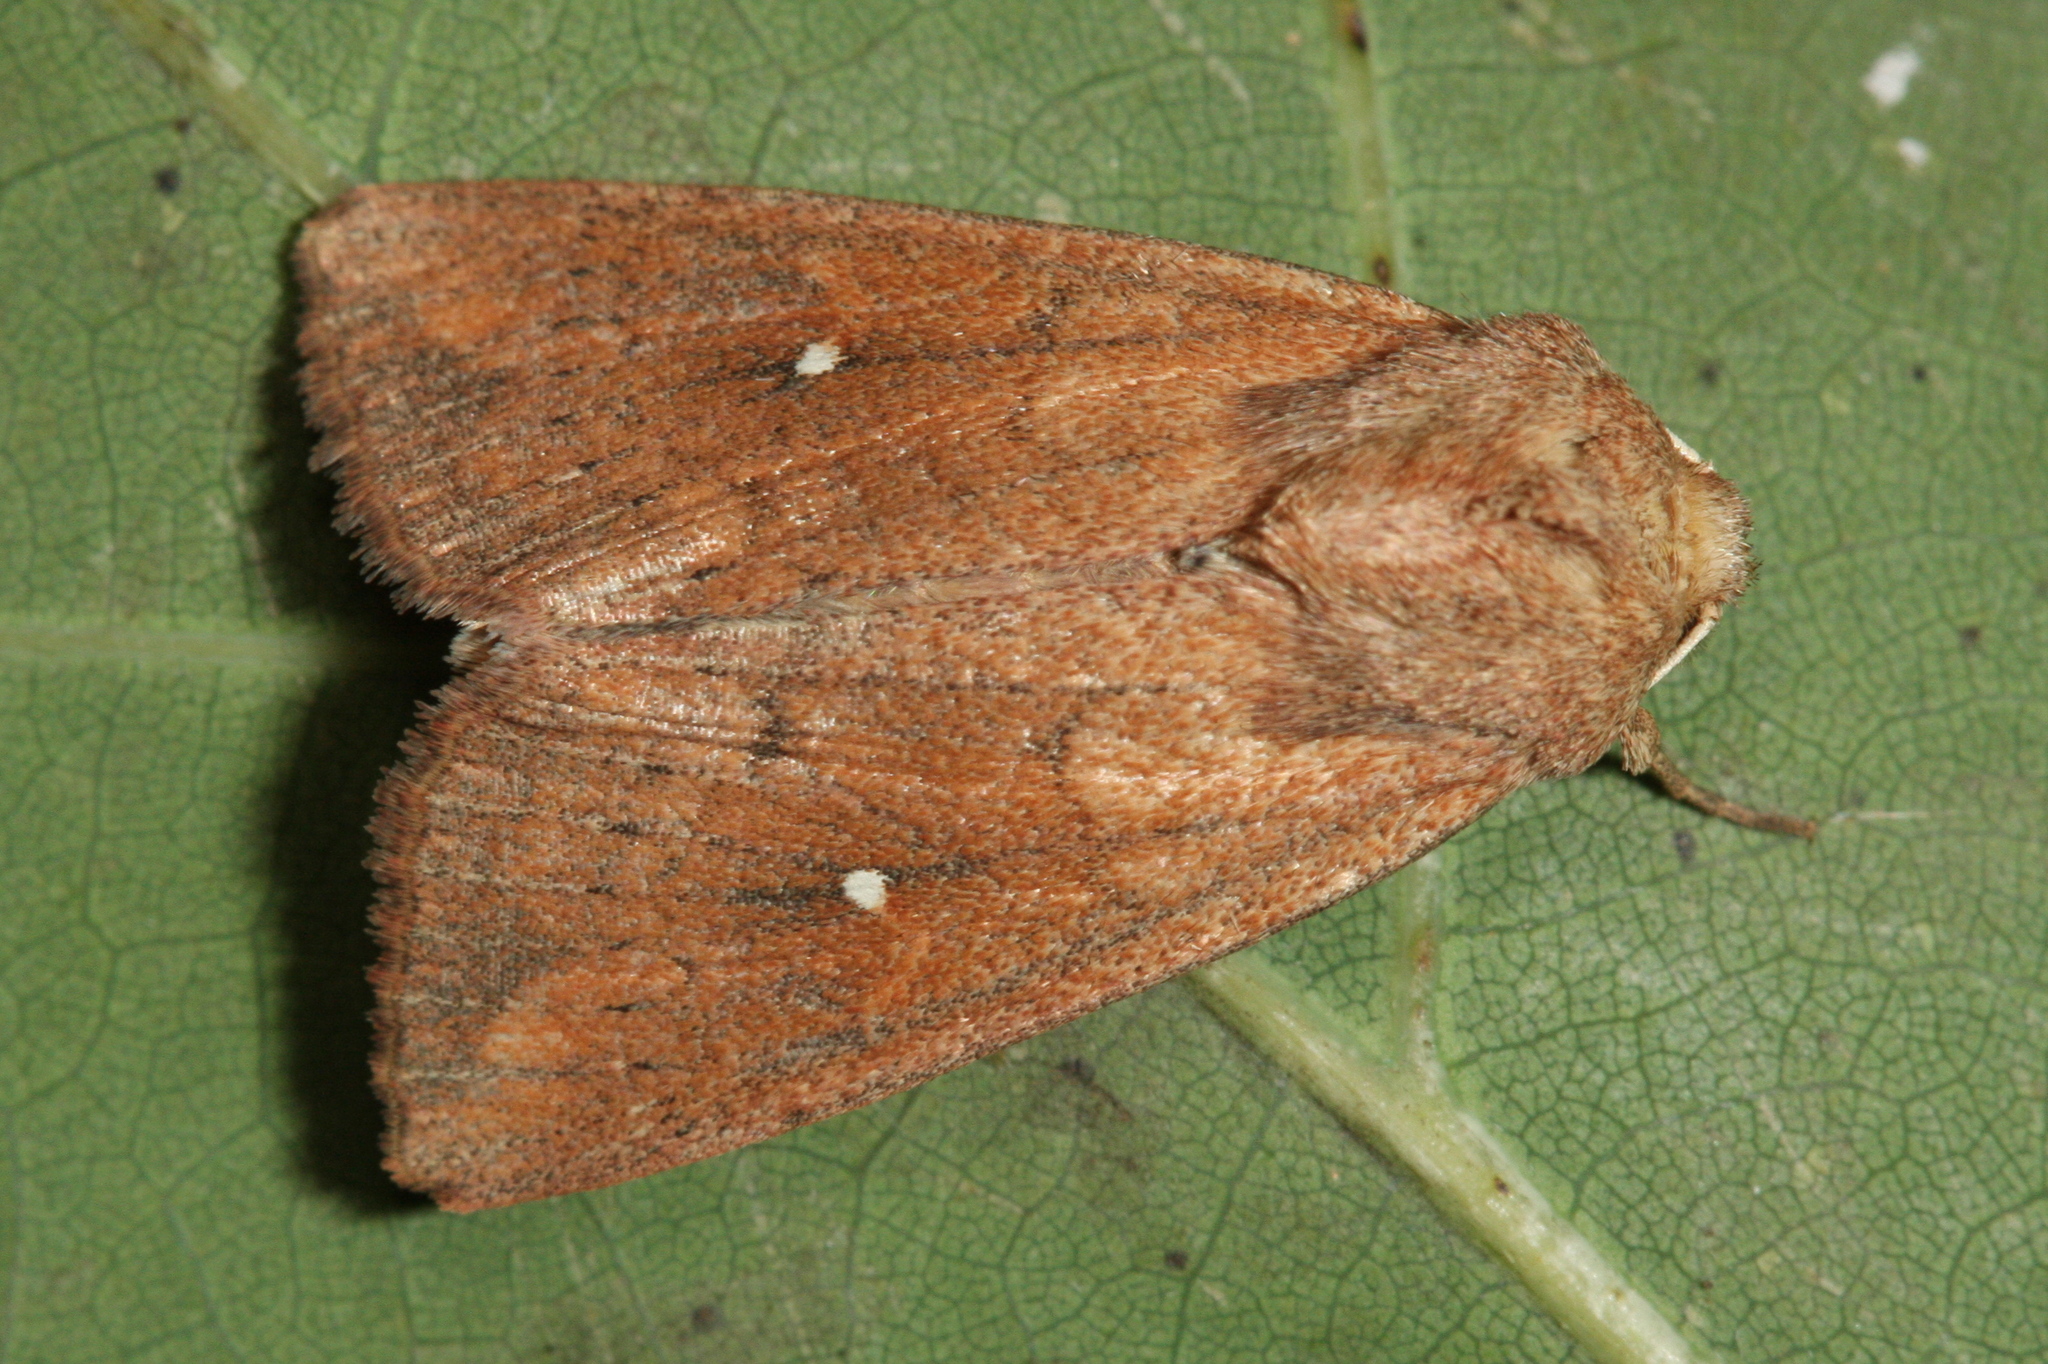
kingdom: Animalia
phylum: Arthropoda
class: Insecta
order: Lepidoptera
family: Noctuidae
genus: Mythimna
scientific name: Mythimna albipuncta
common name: White-point
